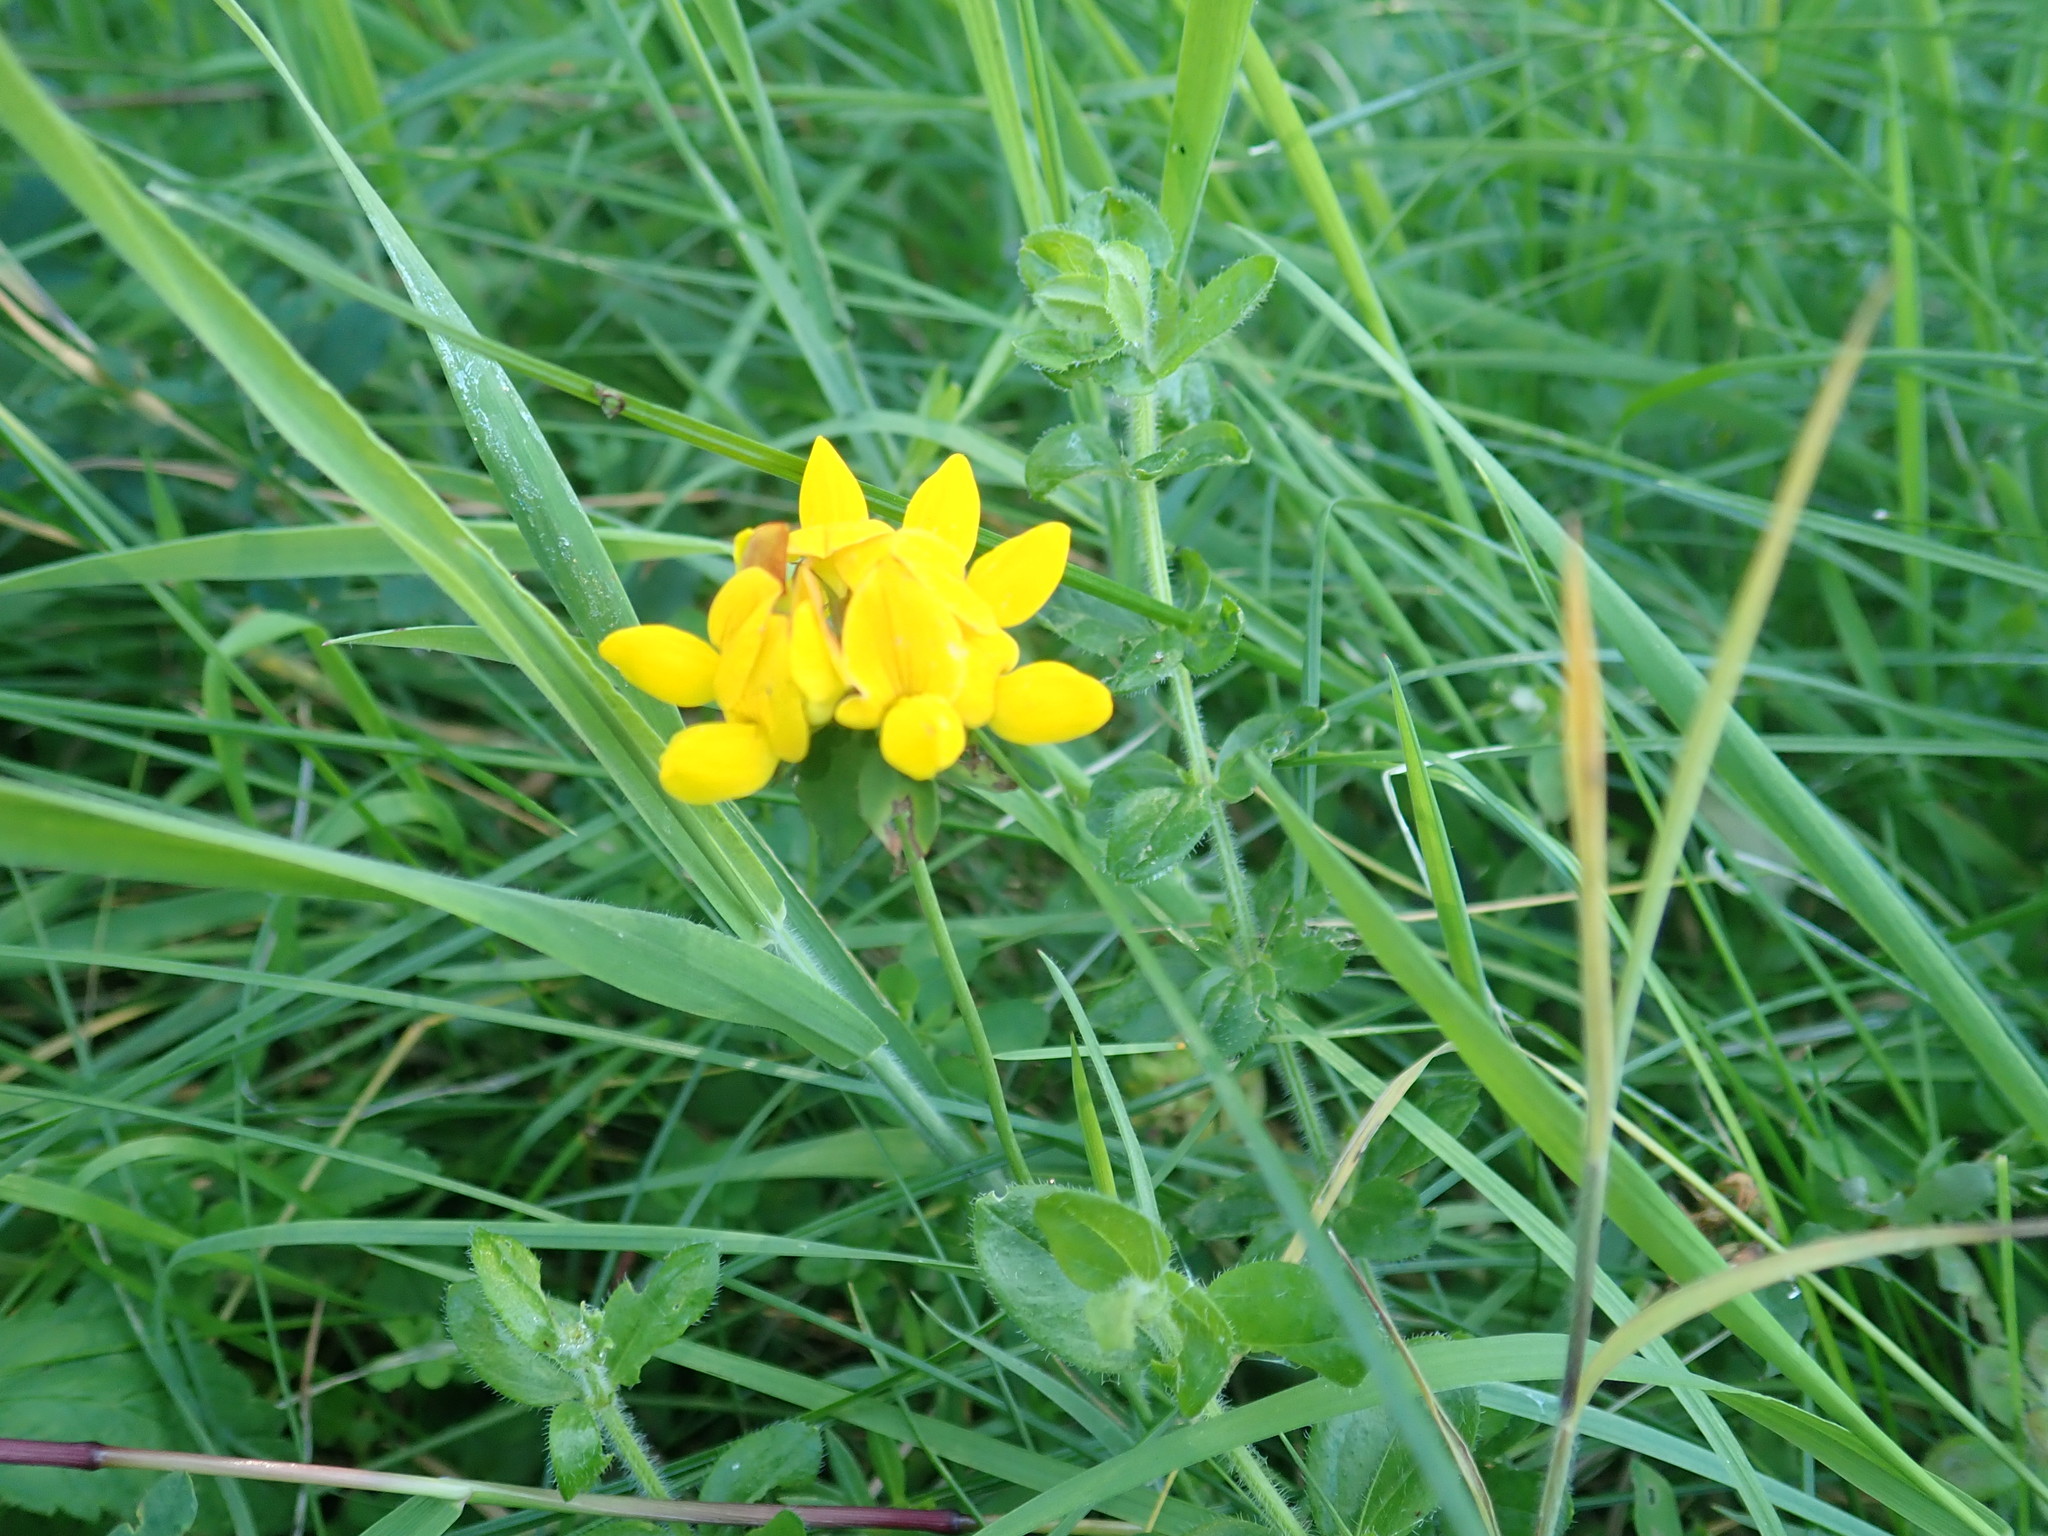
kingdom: Plantae
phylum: Tracheophyta
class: Magnoliopsida
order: Fabales
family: Fabaceae
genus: Lotus
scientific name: Lotus pedunculatus
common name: Greater birdsfoot-trefoil
